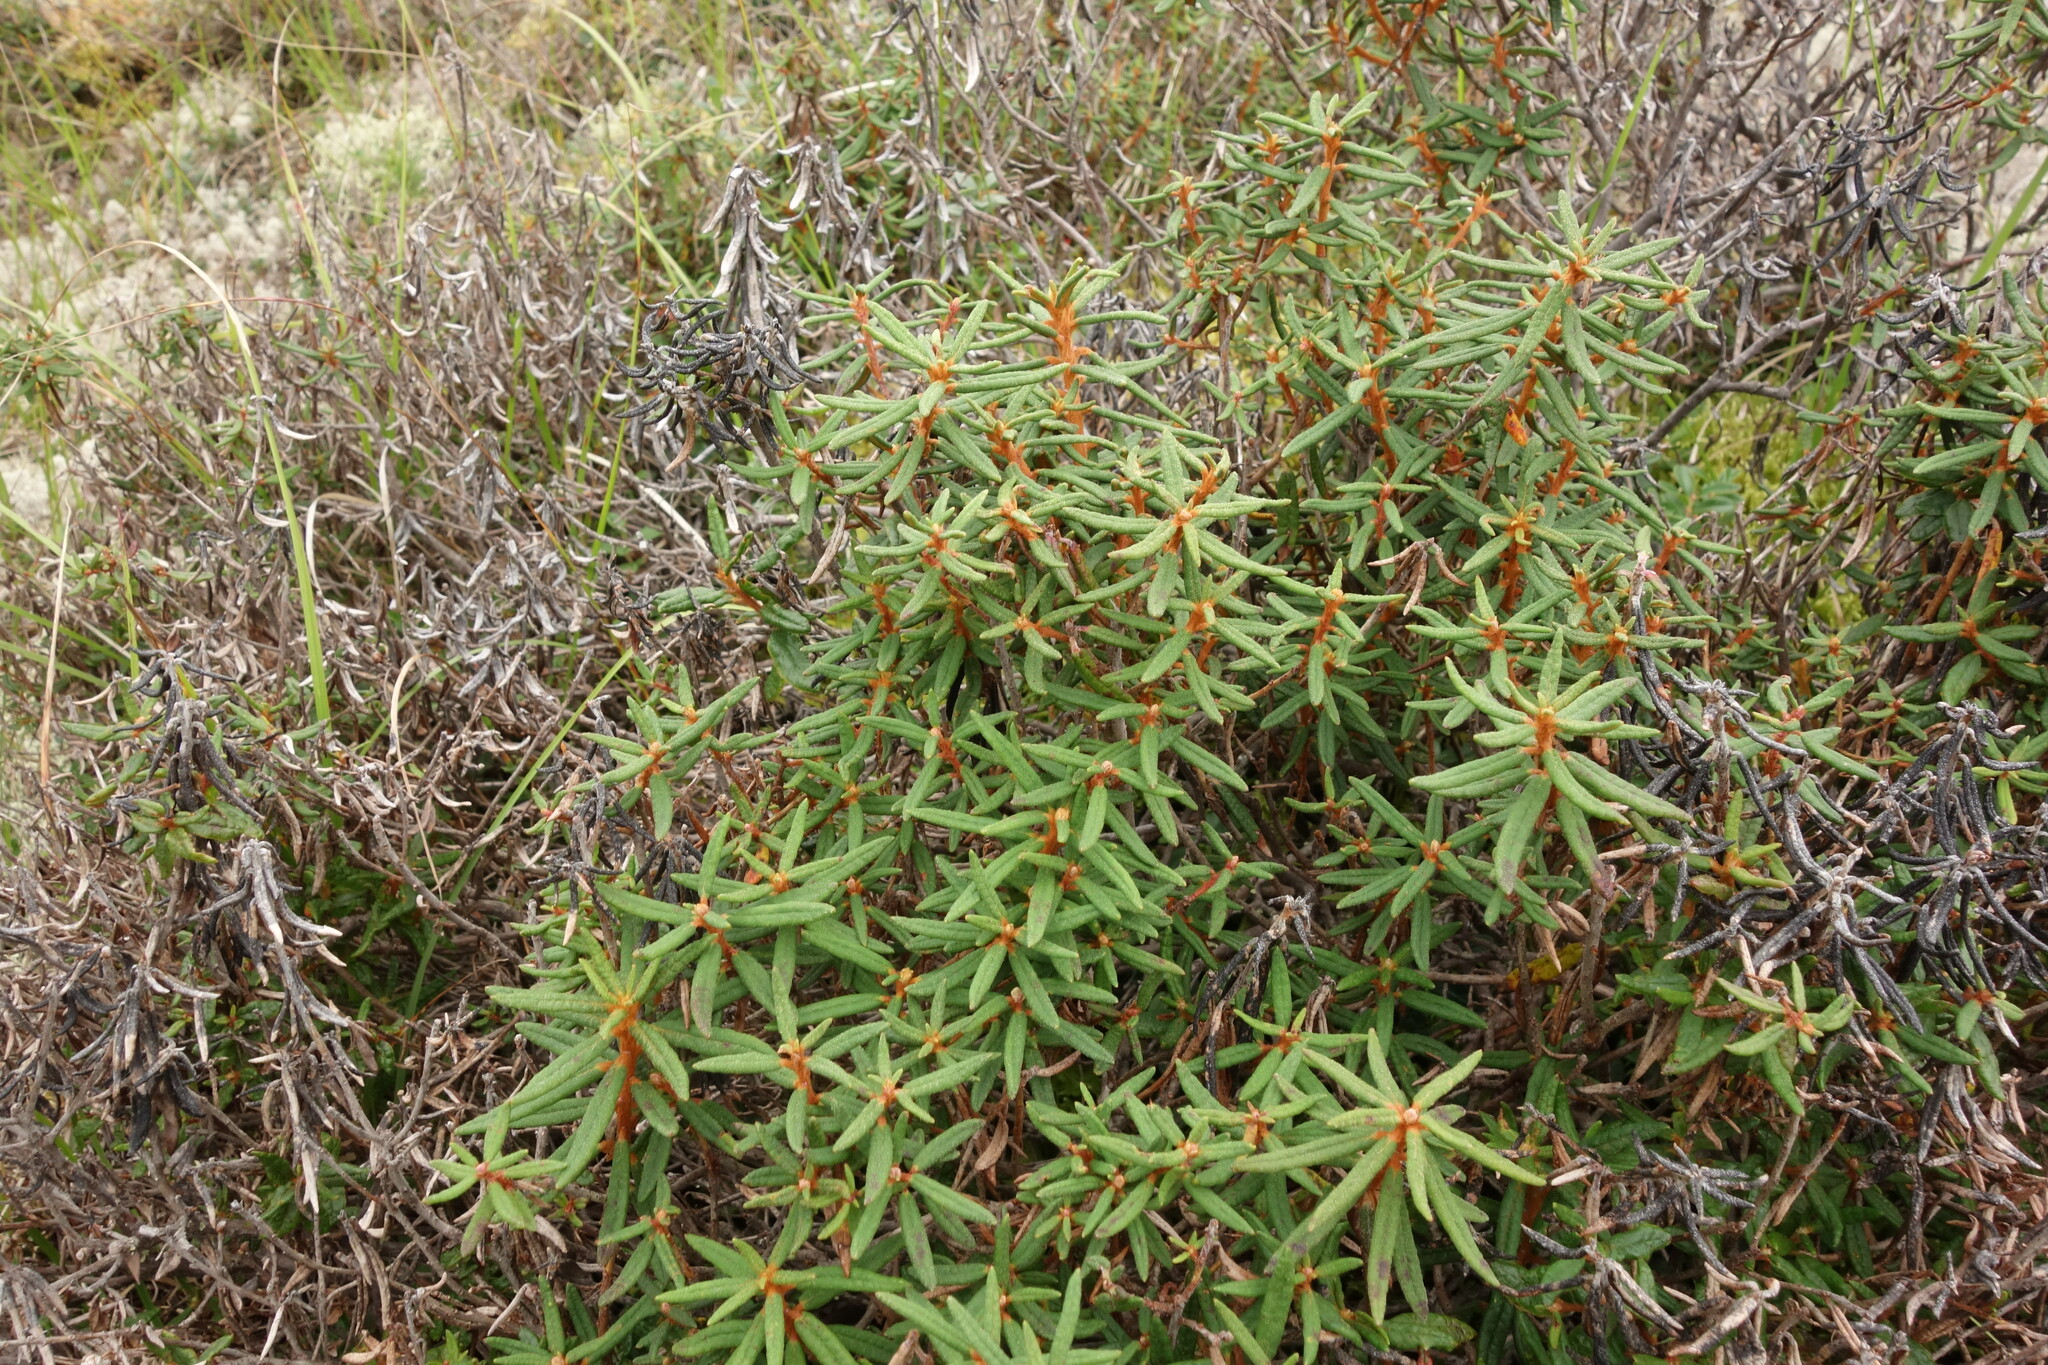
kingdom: Plantae
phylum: Tracheophyta
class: Magnoliopsida
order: Ericales
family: Ericaceae
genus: Rhododendron
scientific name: Rhododendron tomentosum
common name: Marsh labrador tea
